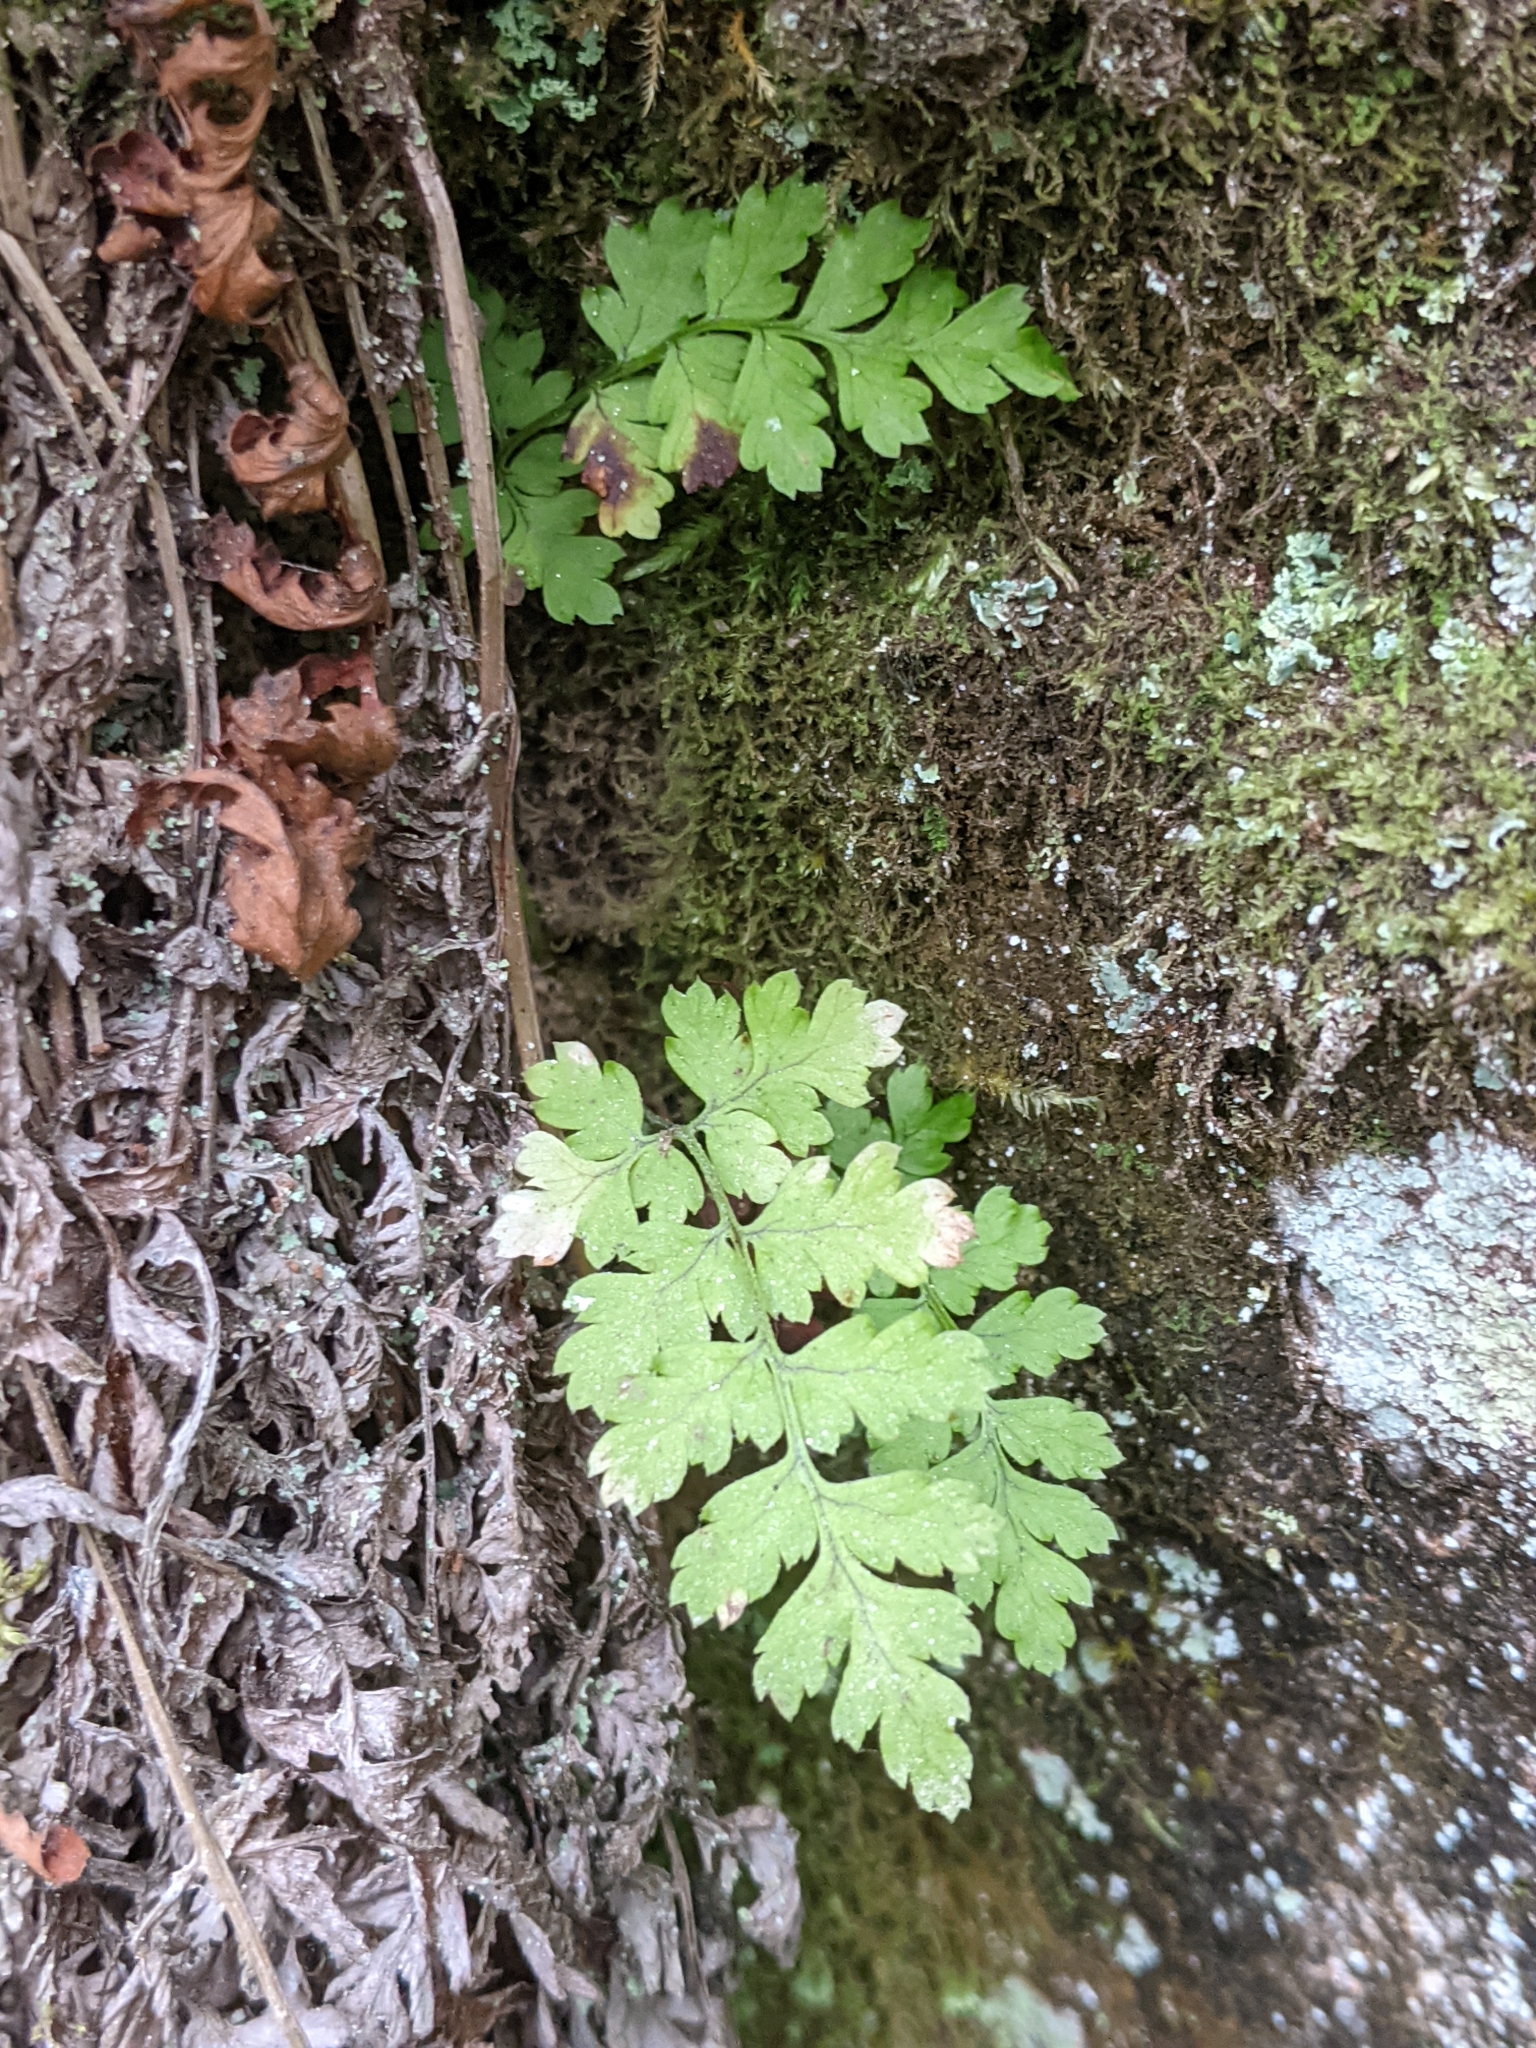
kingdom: Plantae
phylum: Tracheophyta
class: Polypodiopsida
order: Polypodiales
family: Dryopteridaceae
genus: Dryopteris
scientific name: Dryopteris
